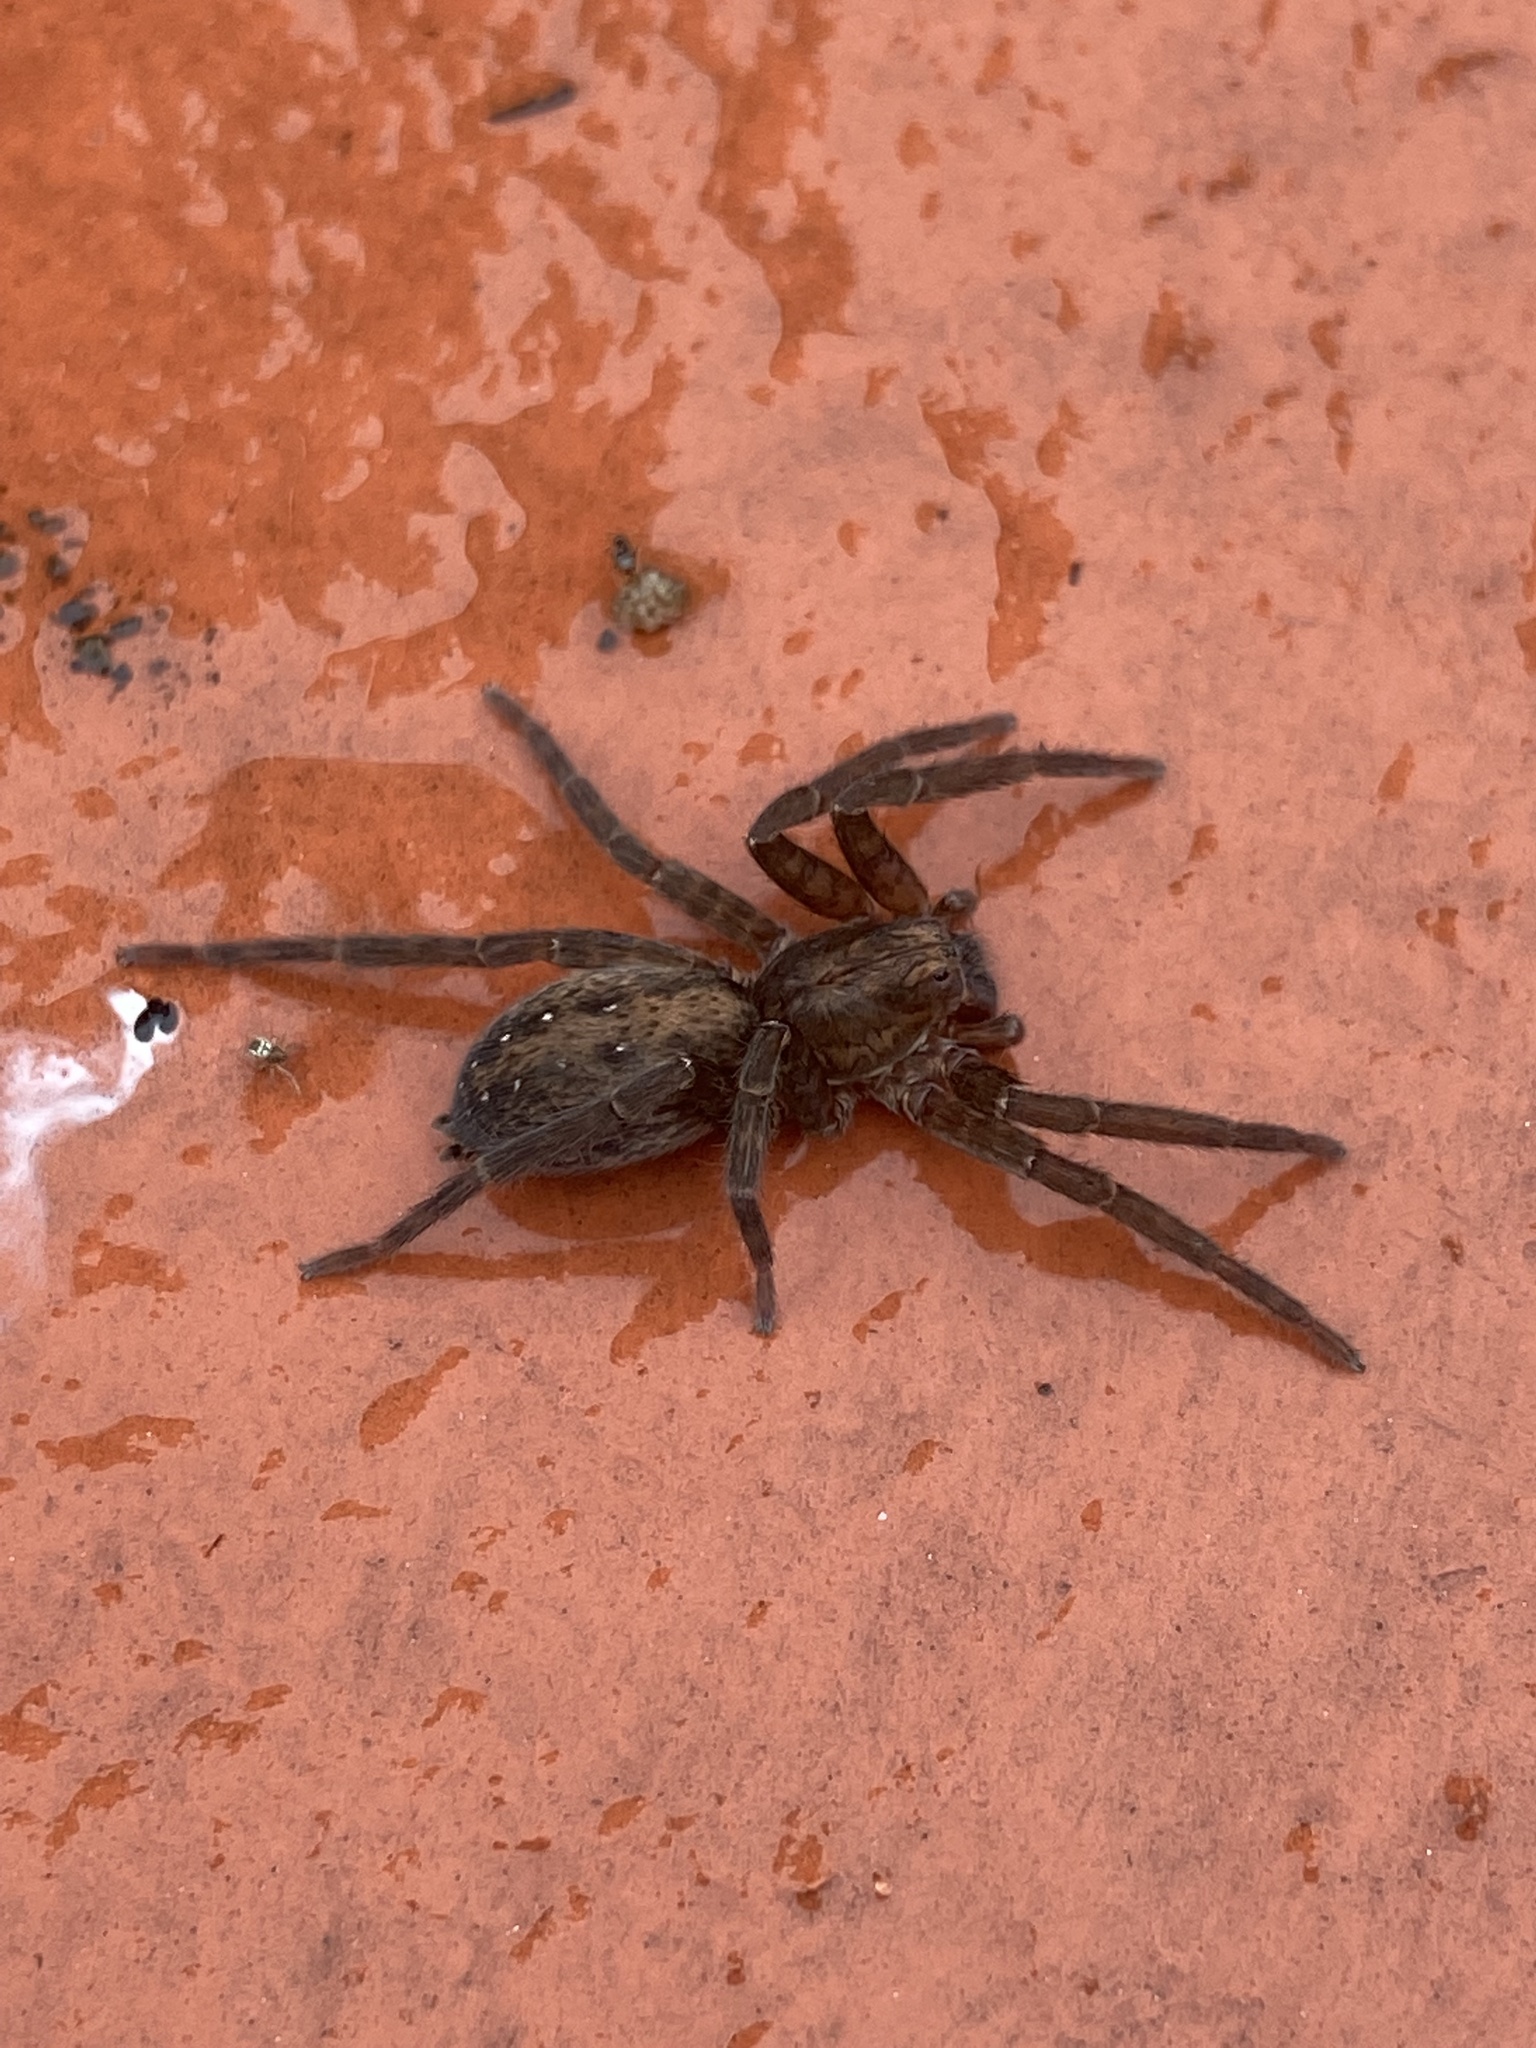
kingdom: Animalia
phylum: Arthropoda
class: Arachnida
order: Araneae
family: Ctenidae
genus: Asthenoctenus
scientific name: Asthenoctenus borellii
